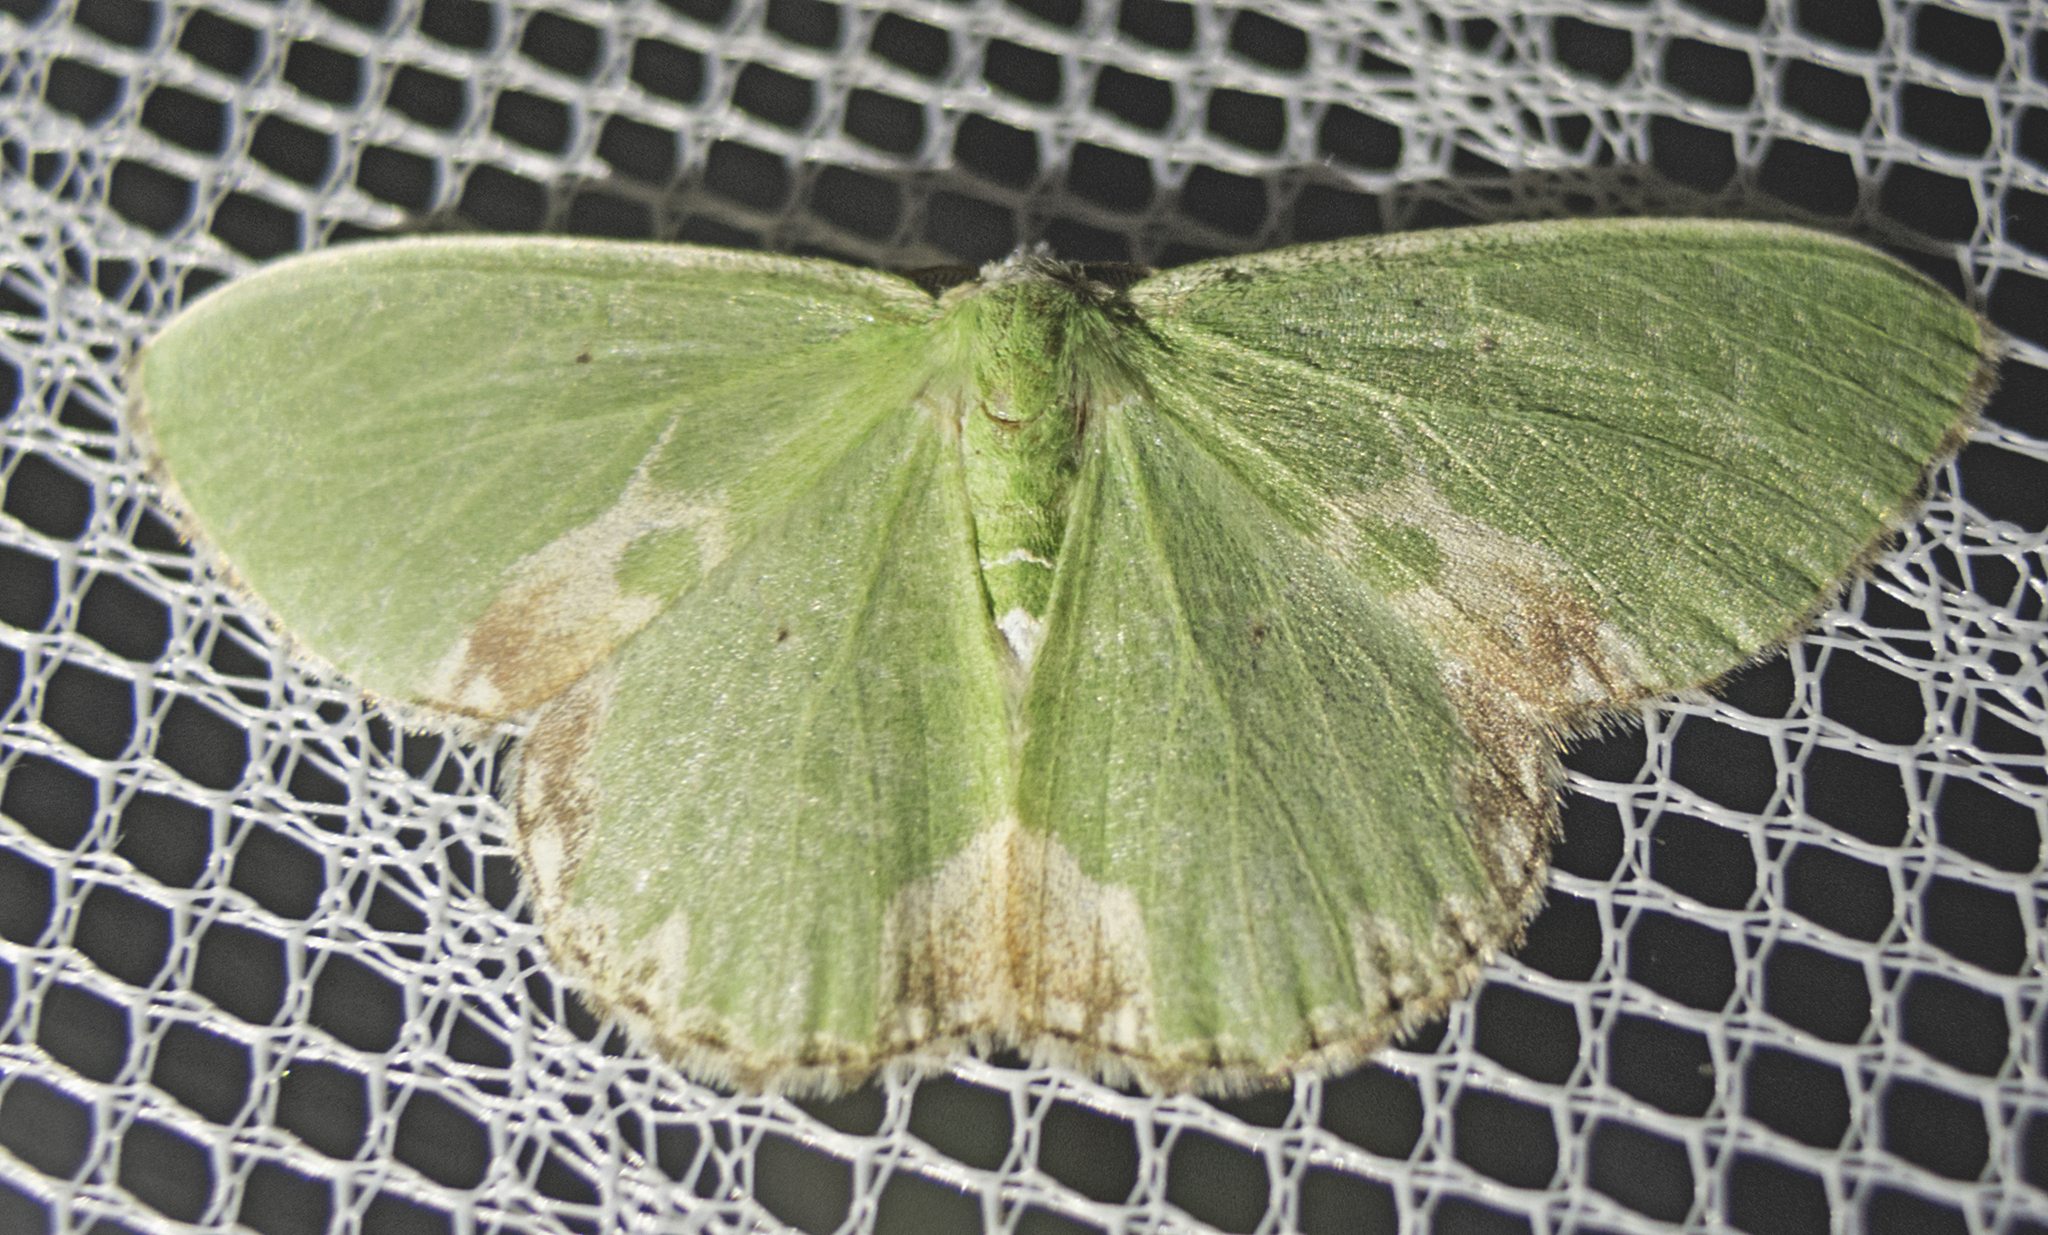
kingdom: Animalia
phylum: Arthropoda
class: Insecta
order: Lepidoptera
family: Geometridae
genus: Comibaena
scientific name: Comibaena bajularia
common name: Blotched emerald
